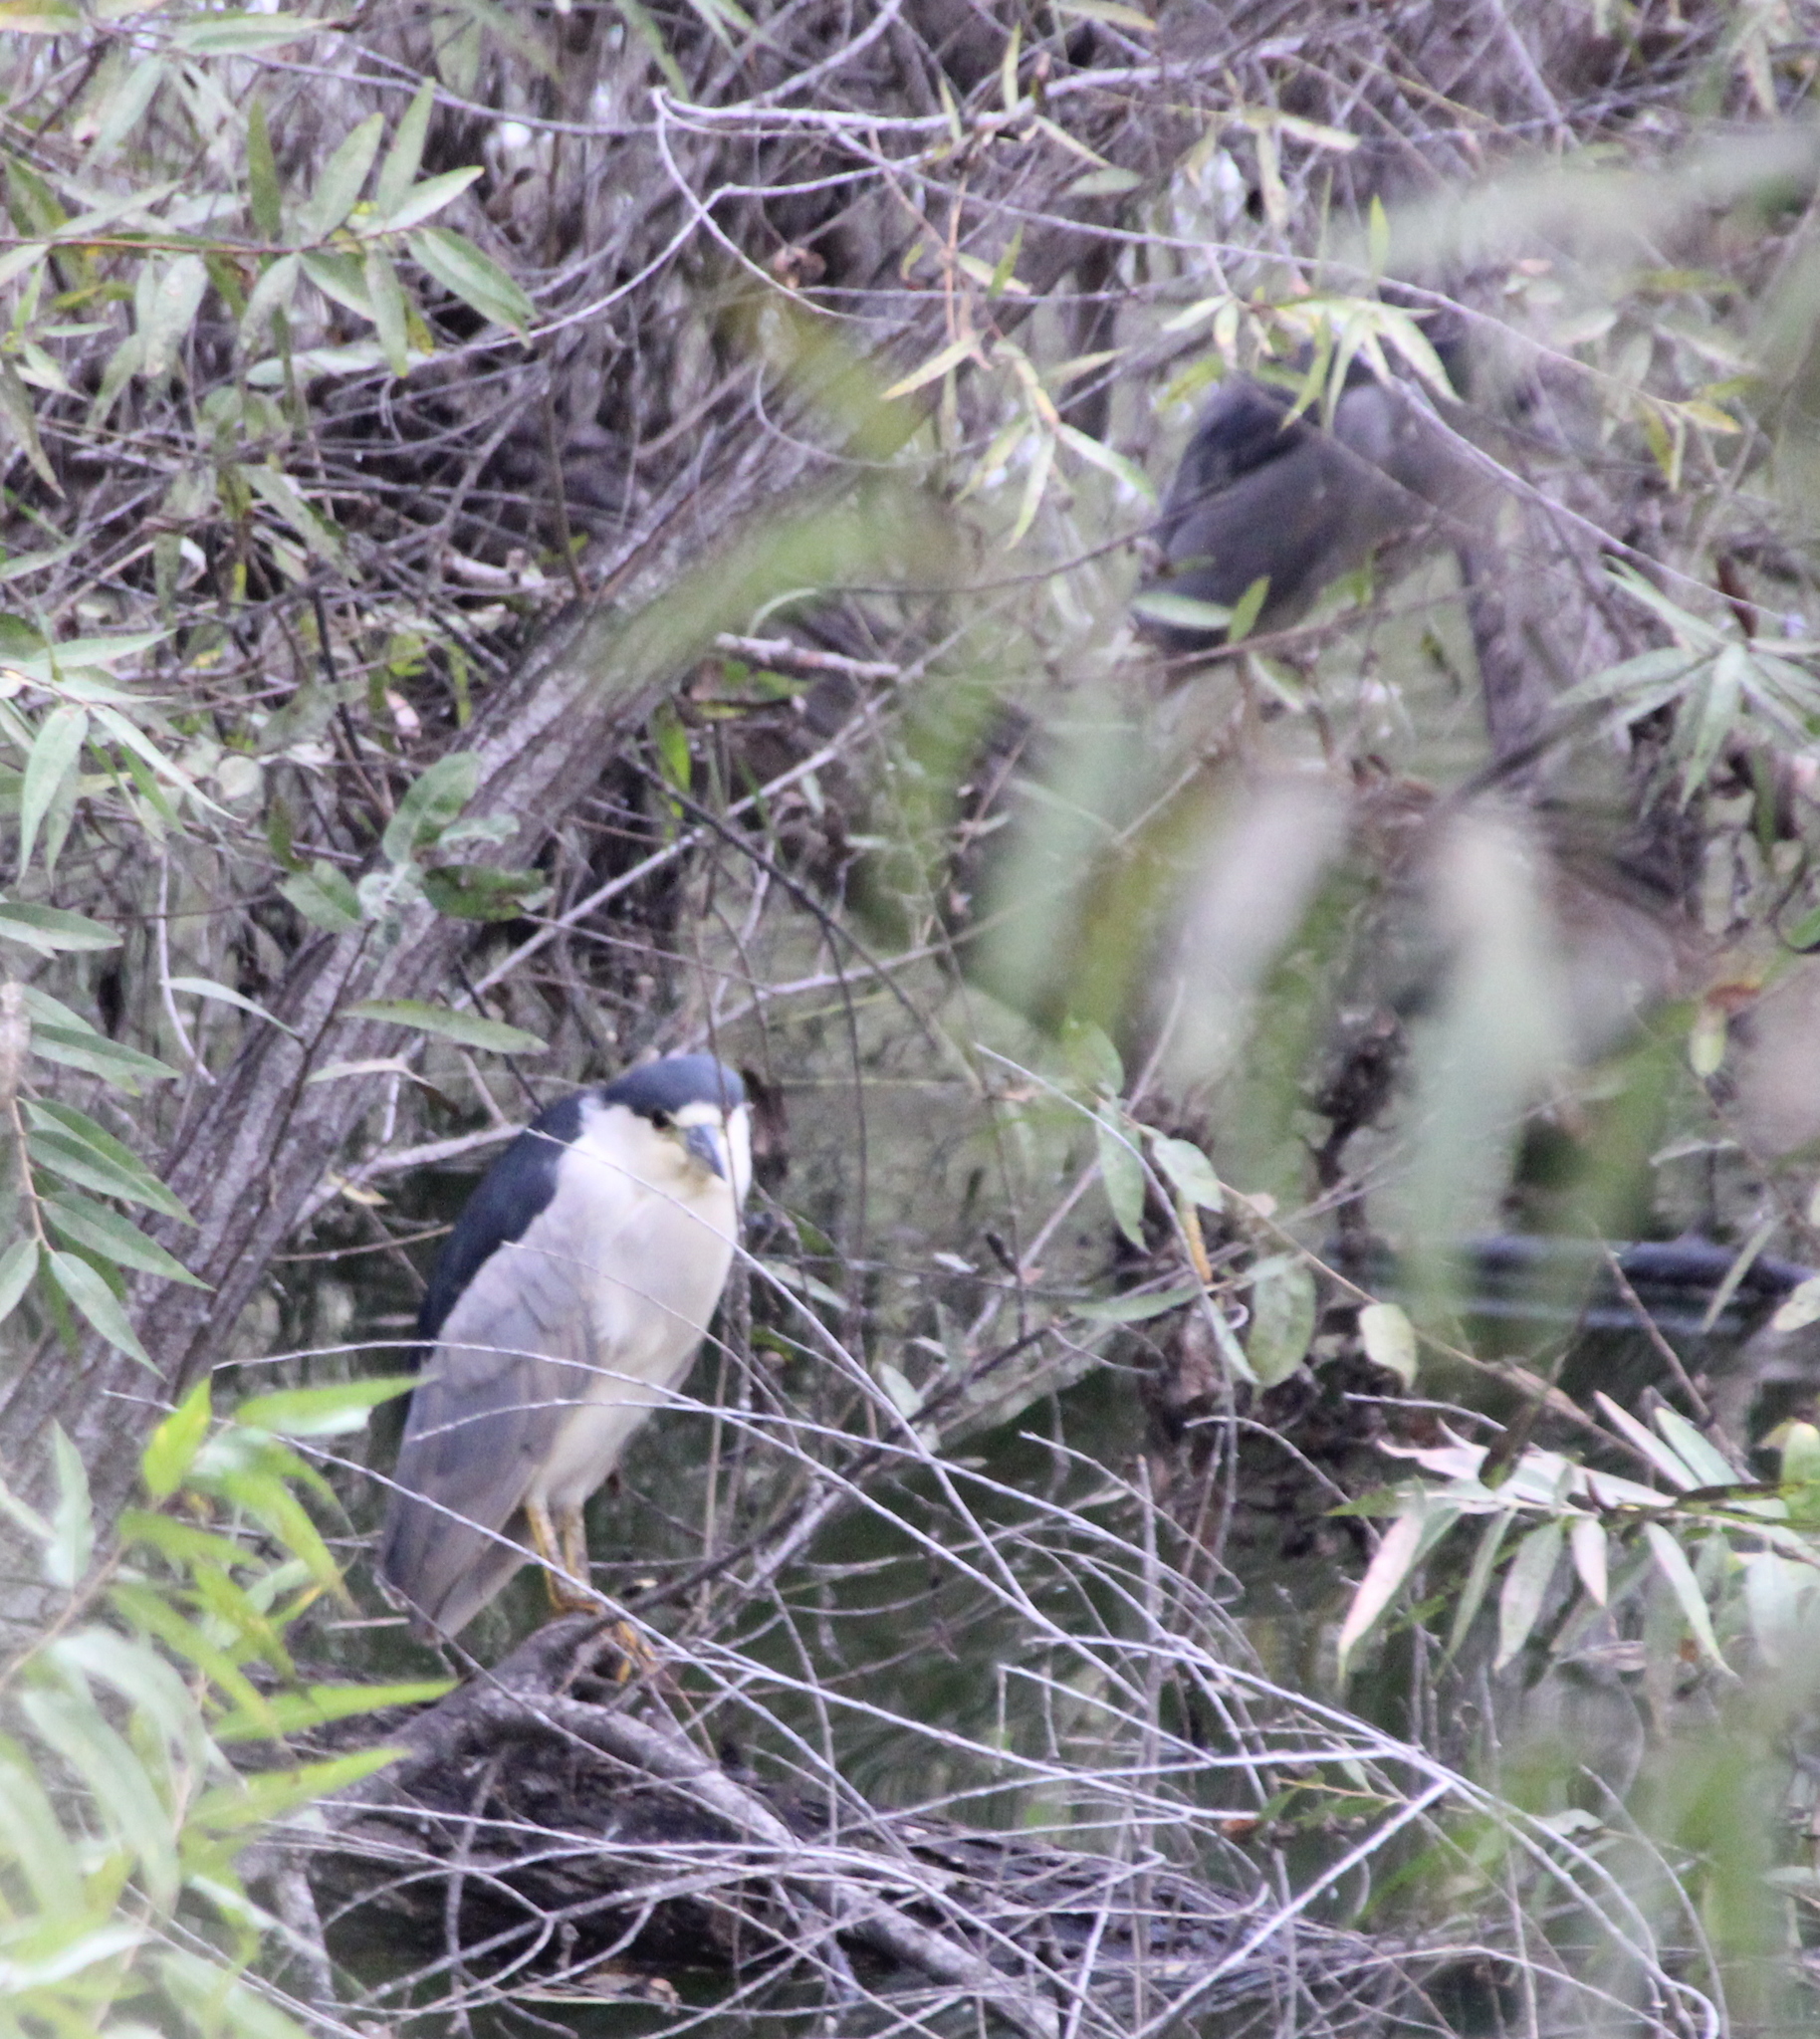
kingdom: Animalia
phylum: Chordata
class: Aves
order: Pelecaniformes
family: Ardeidae
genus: Nycticorax
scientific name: Nycticorax nycticorax
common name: Black-crowned night heron
